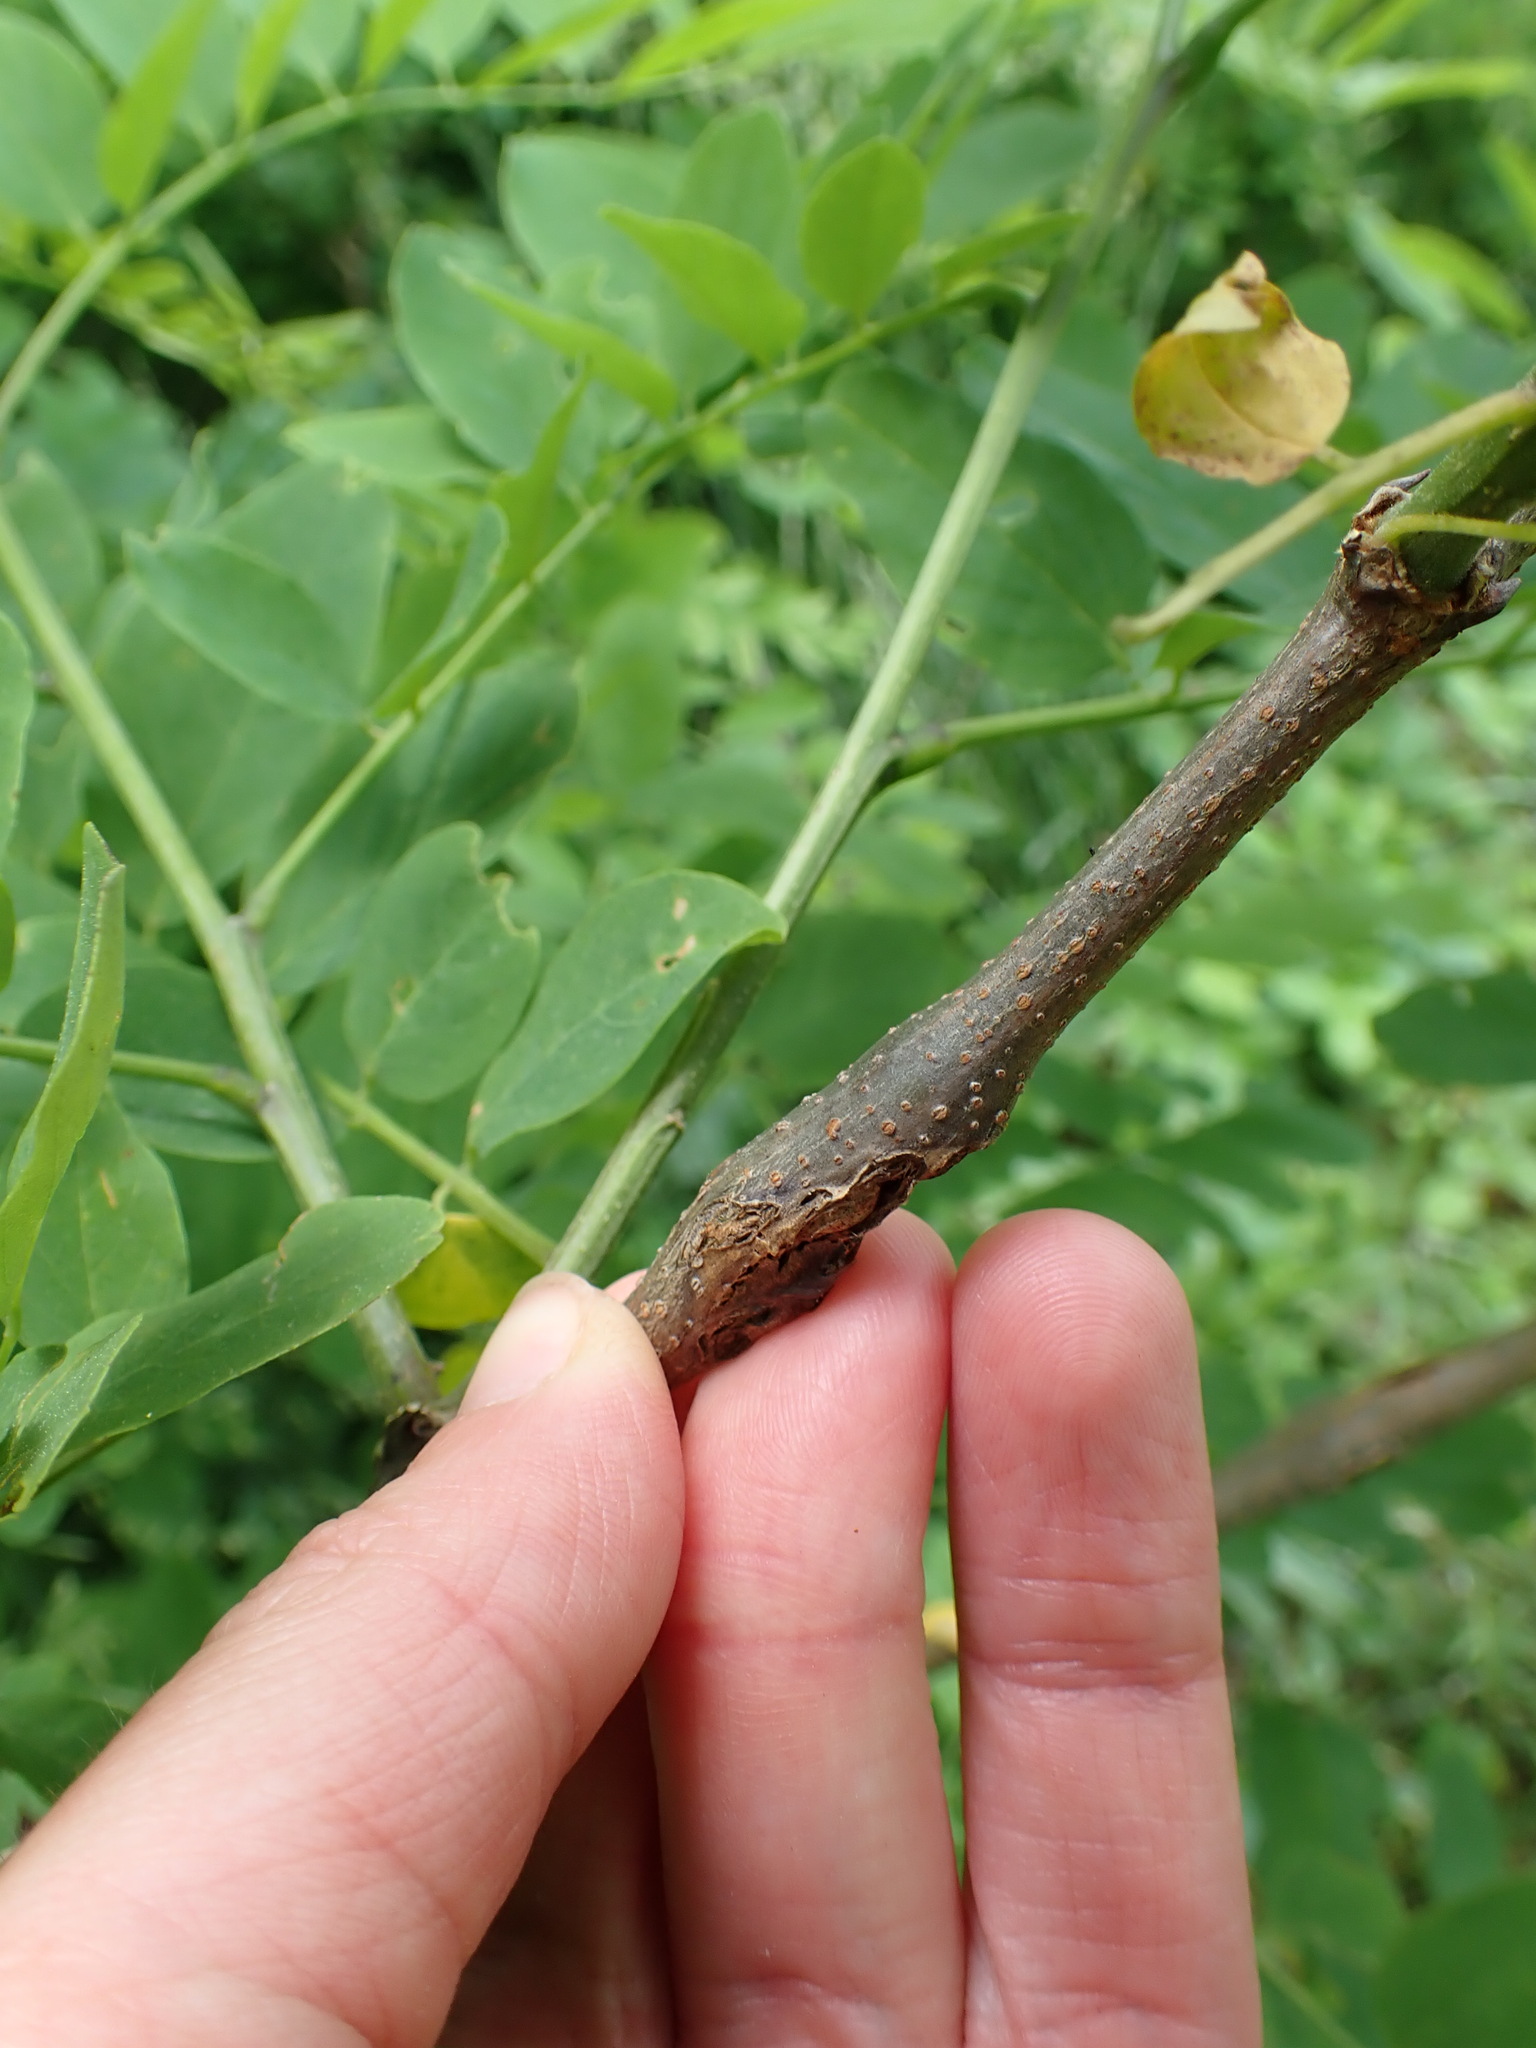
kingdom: Animalia
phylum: Arthropoda
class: Insecta
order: Lepidoptera
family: Tortricidae
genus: Ecdytolopha
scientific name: Ecdytolopha insiticiana
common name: Locust twig borer moth
